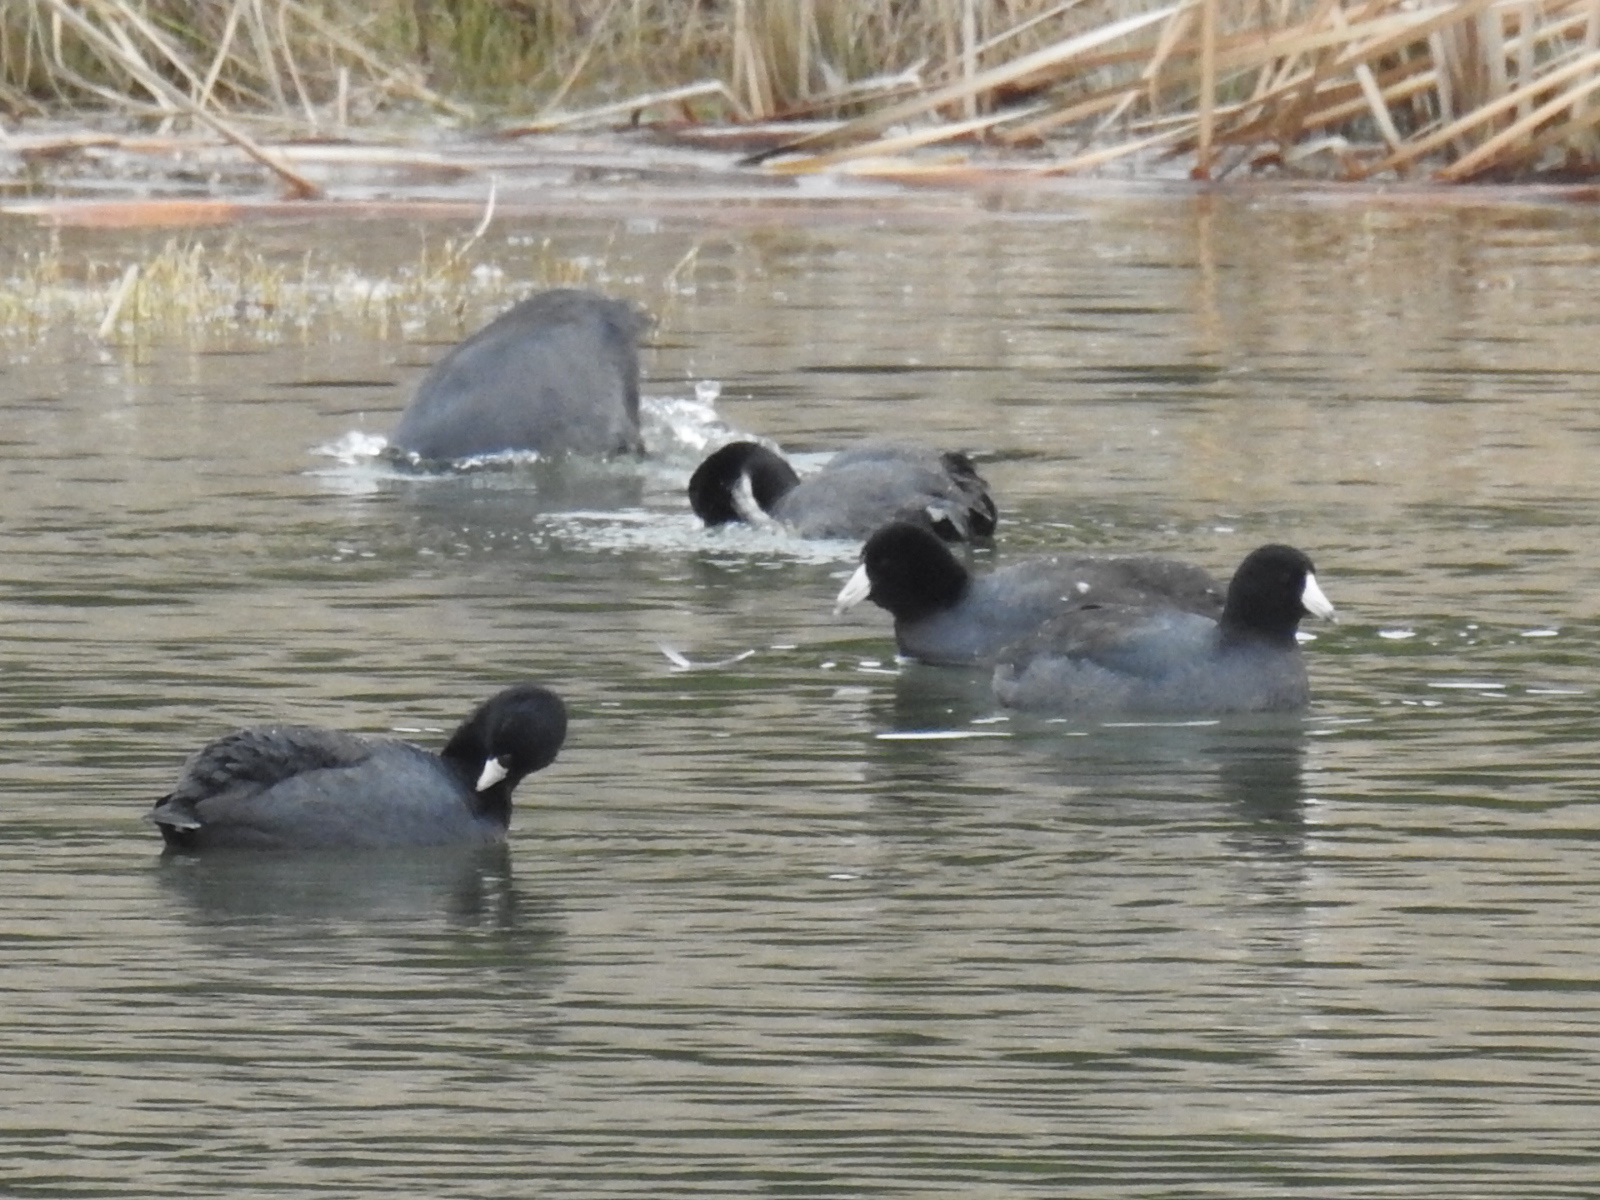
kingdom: Animalia
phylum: Chordata
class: Aves
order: Gruiformes
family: Rallidae
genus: Fulica
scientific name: Fulica americana
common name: American coot
